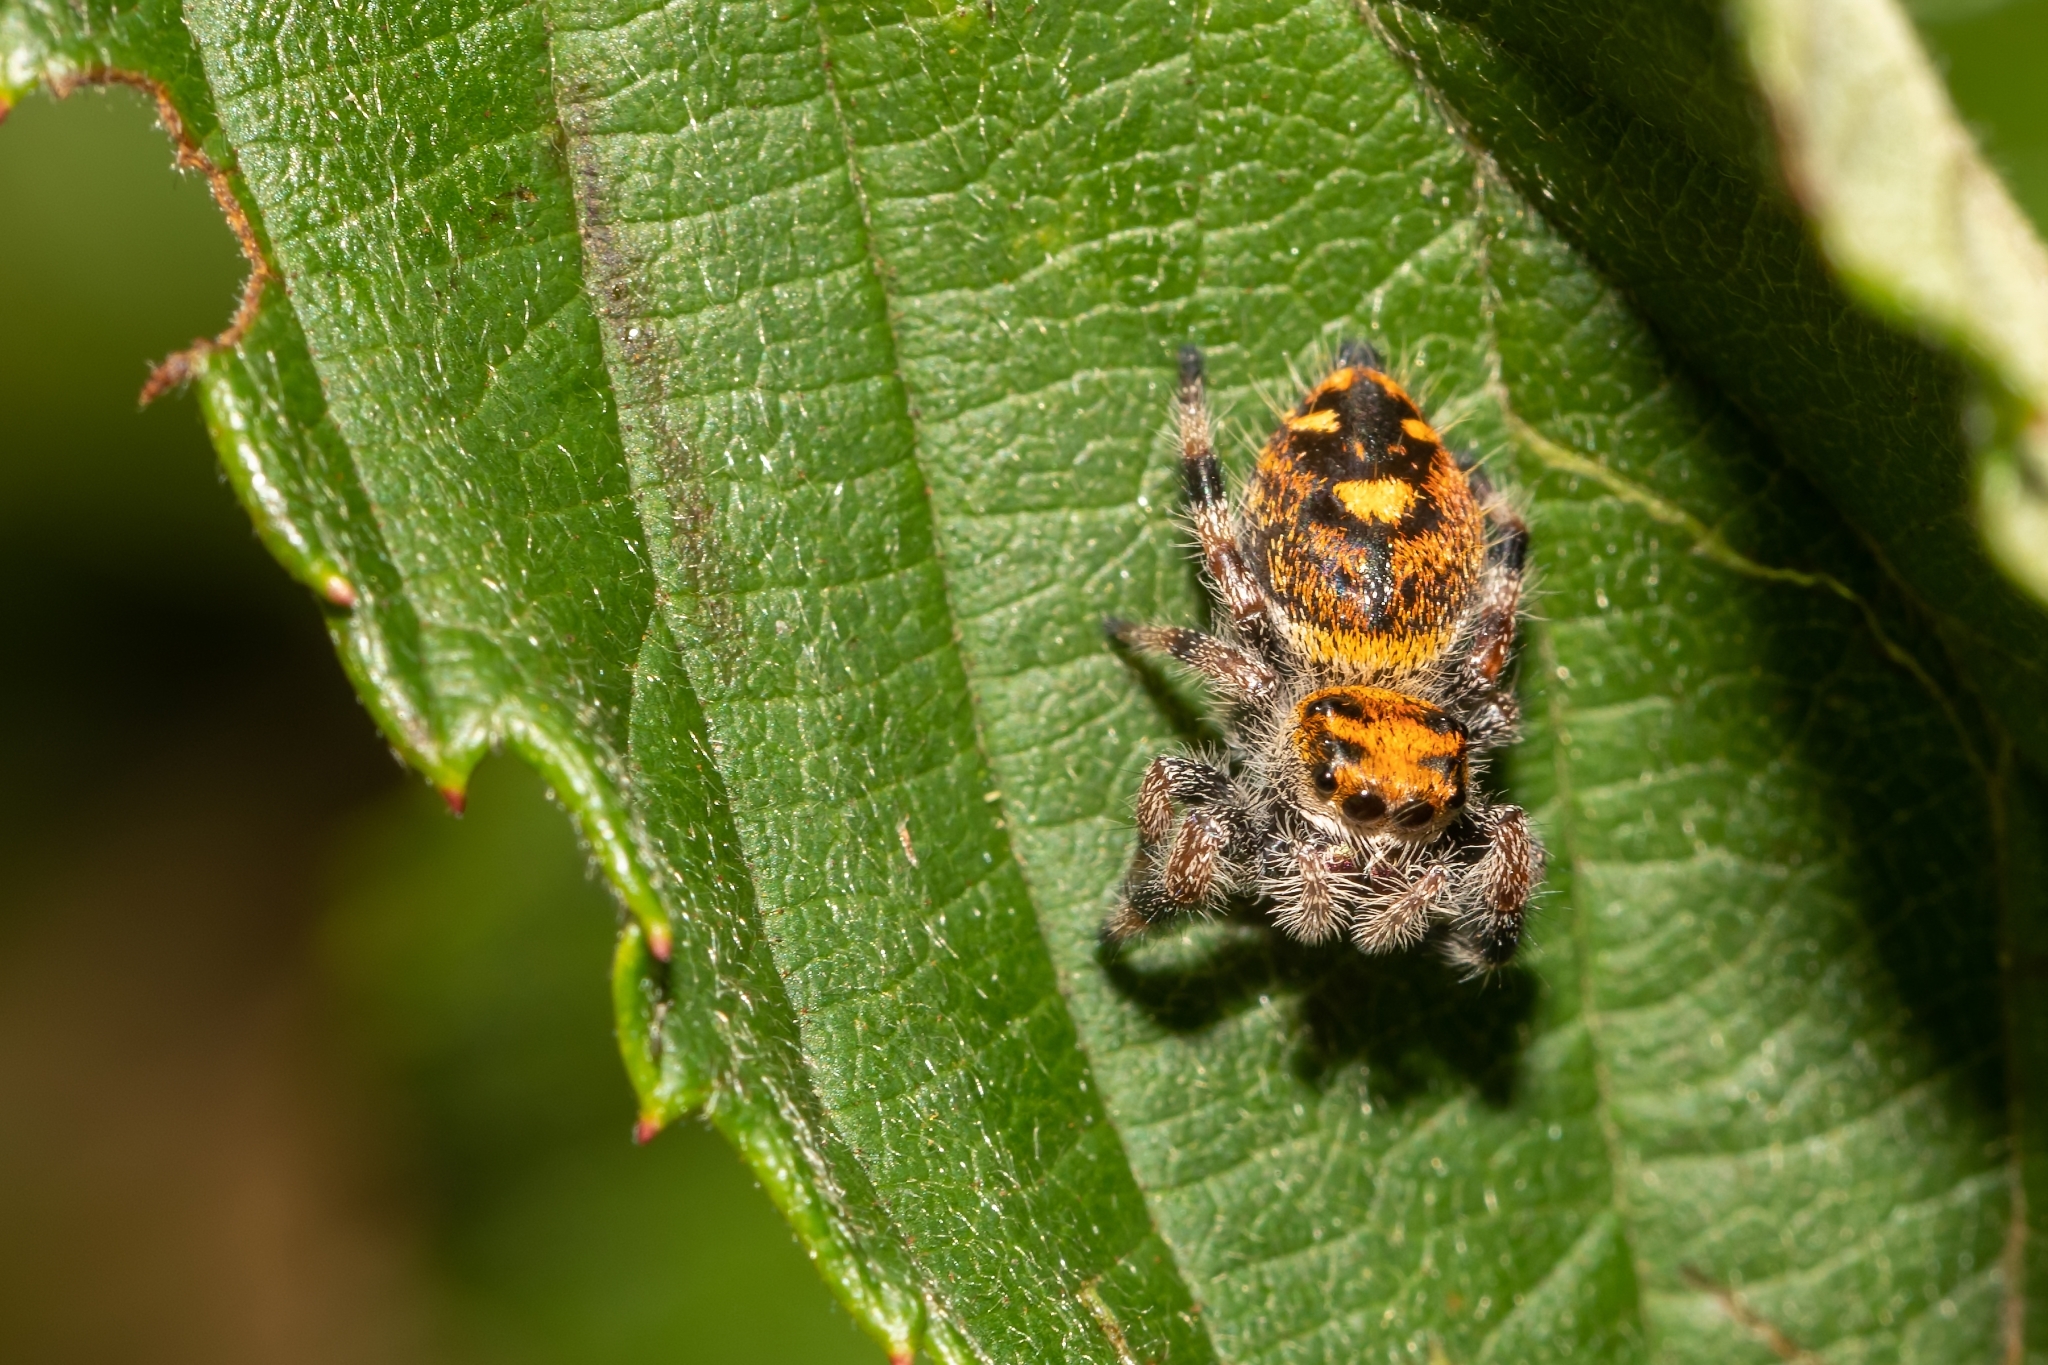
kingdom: Animalia
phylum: Arthropoda
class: Arachnida
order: Araneae
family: Salticidae
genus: Phidippus
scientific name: Phidippus regius
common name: Regal jumper
